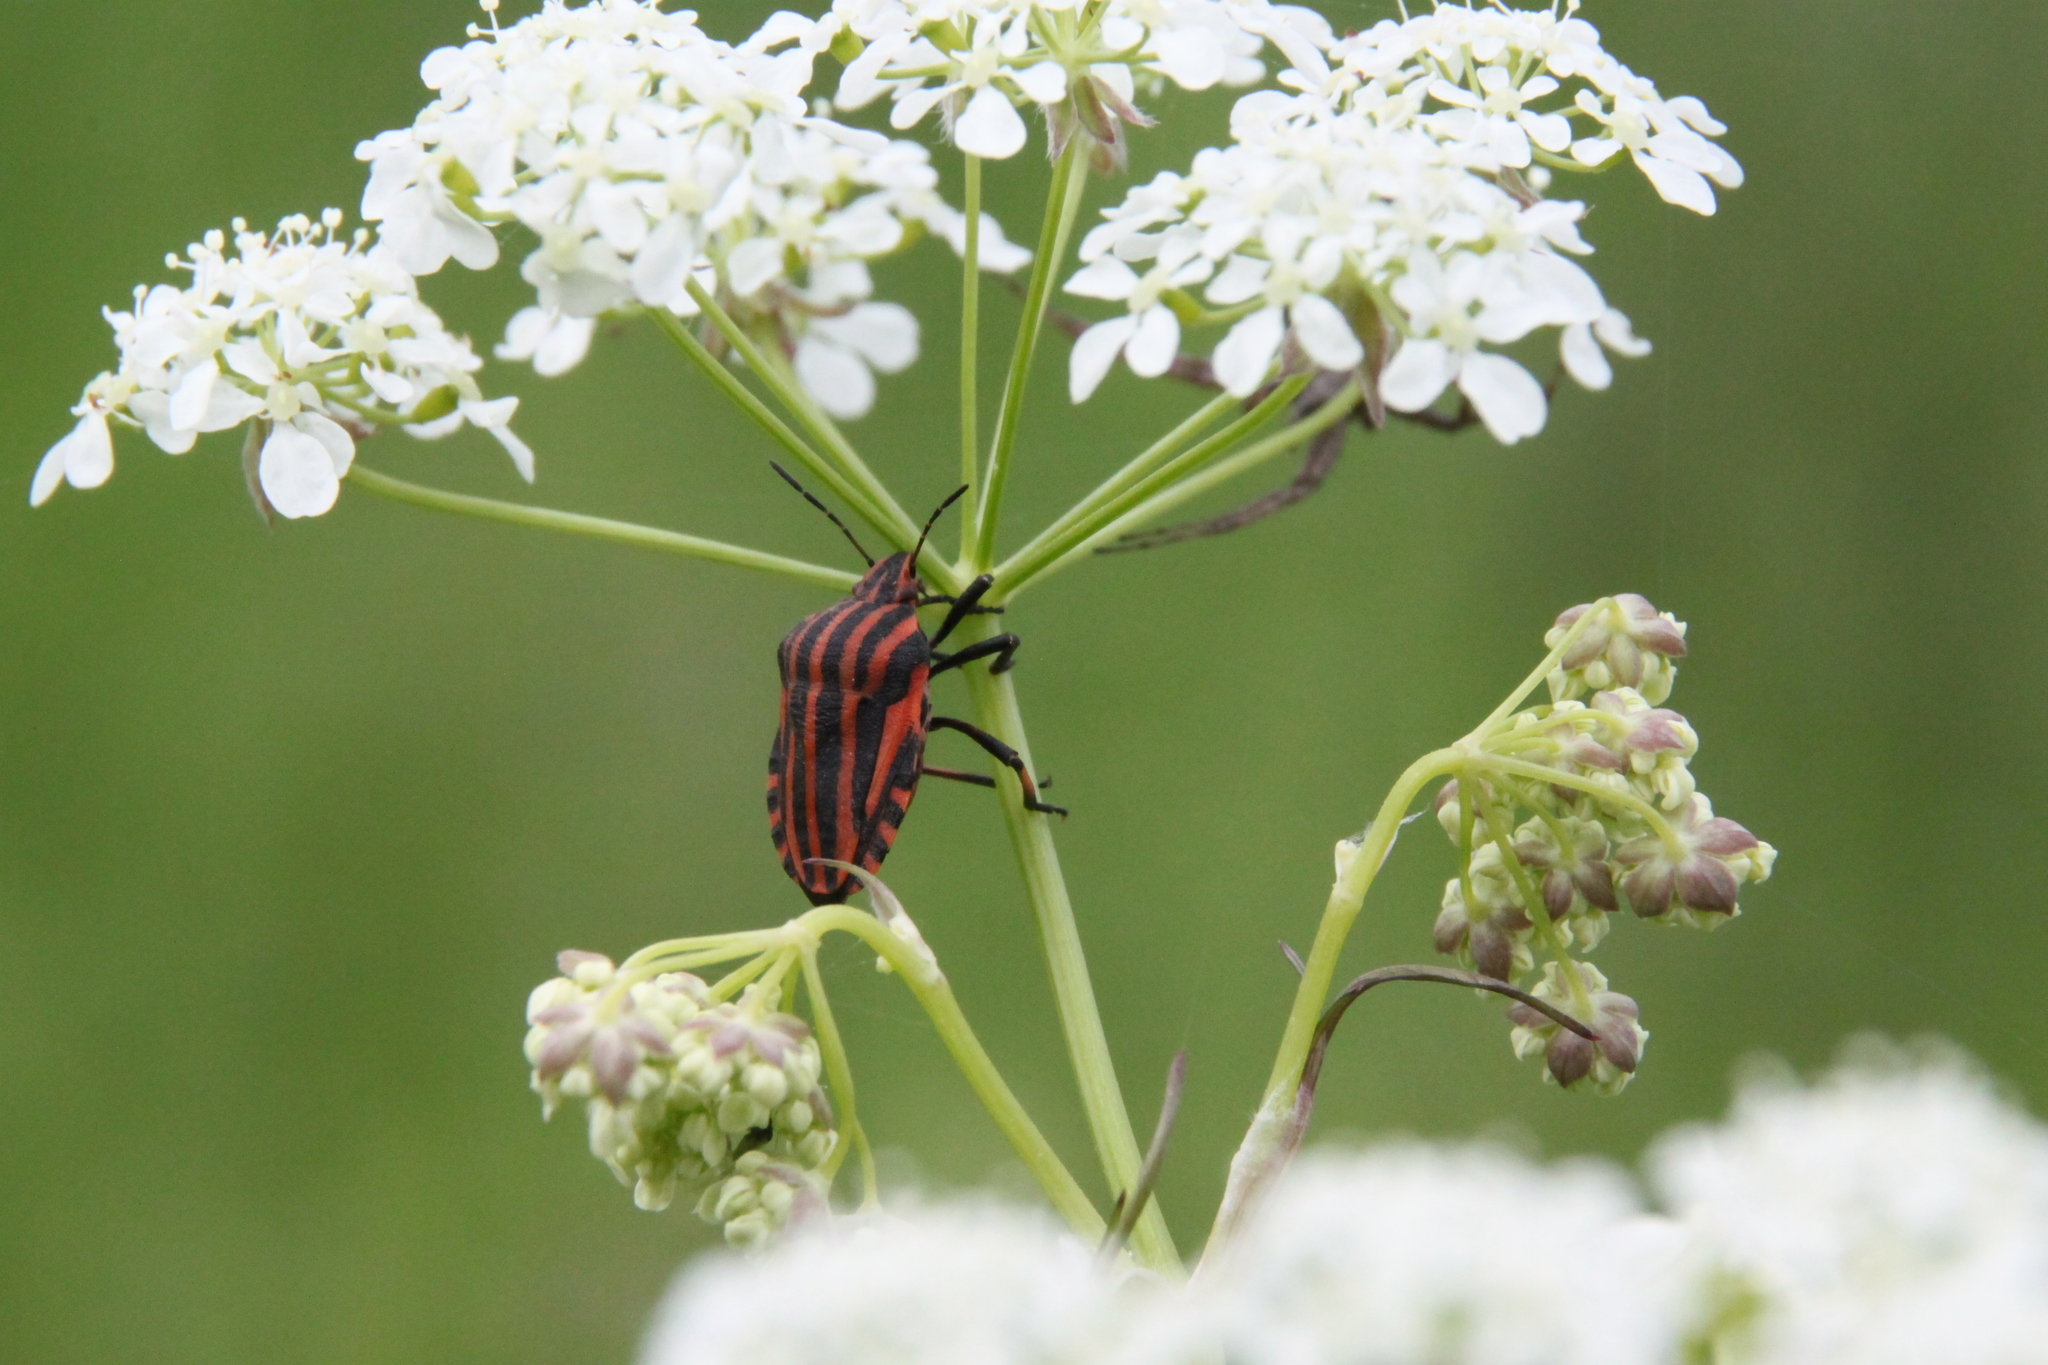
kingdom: Animalia
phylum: Arthropoda
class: Insecta
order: Hemiptera
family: Pentatomidae
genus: Graphosoma
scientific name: Graphosoma italicum
